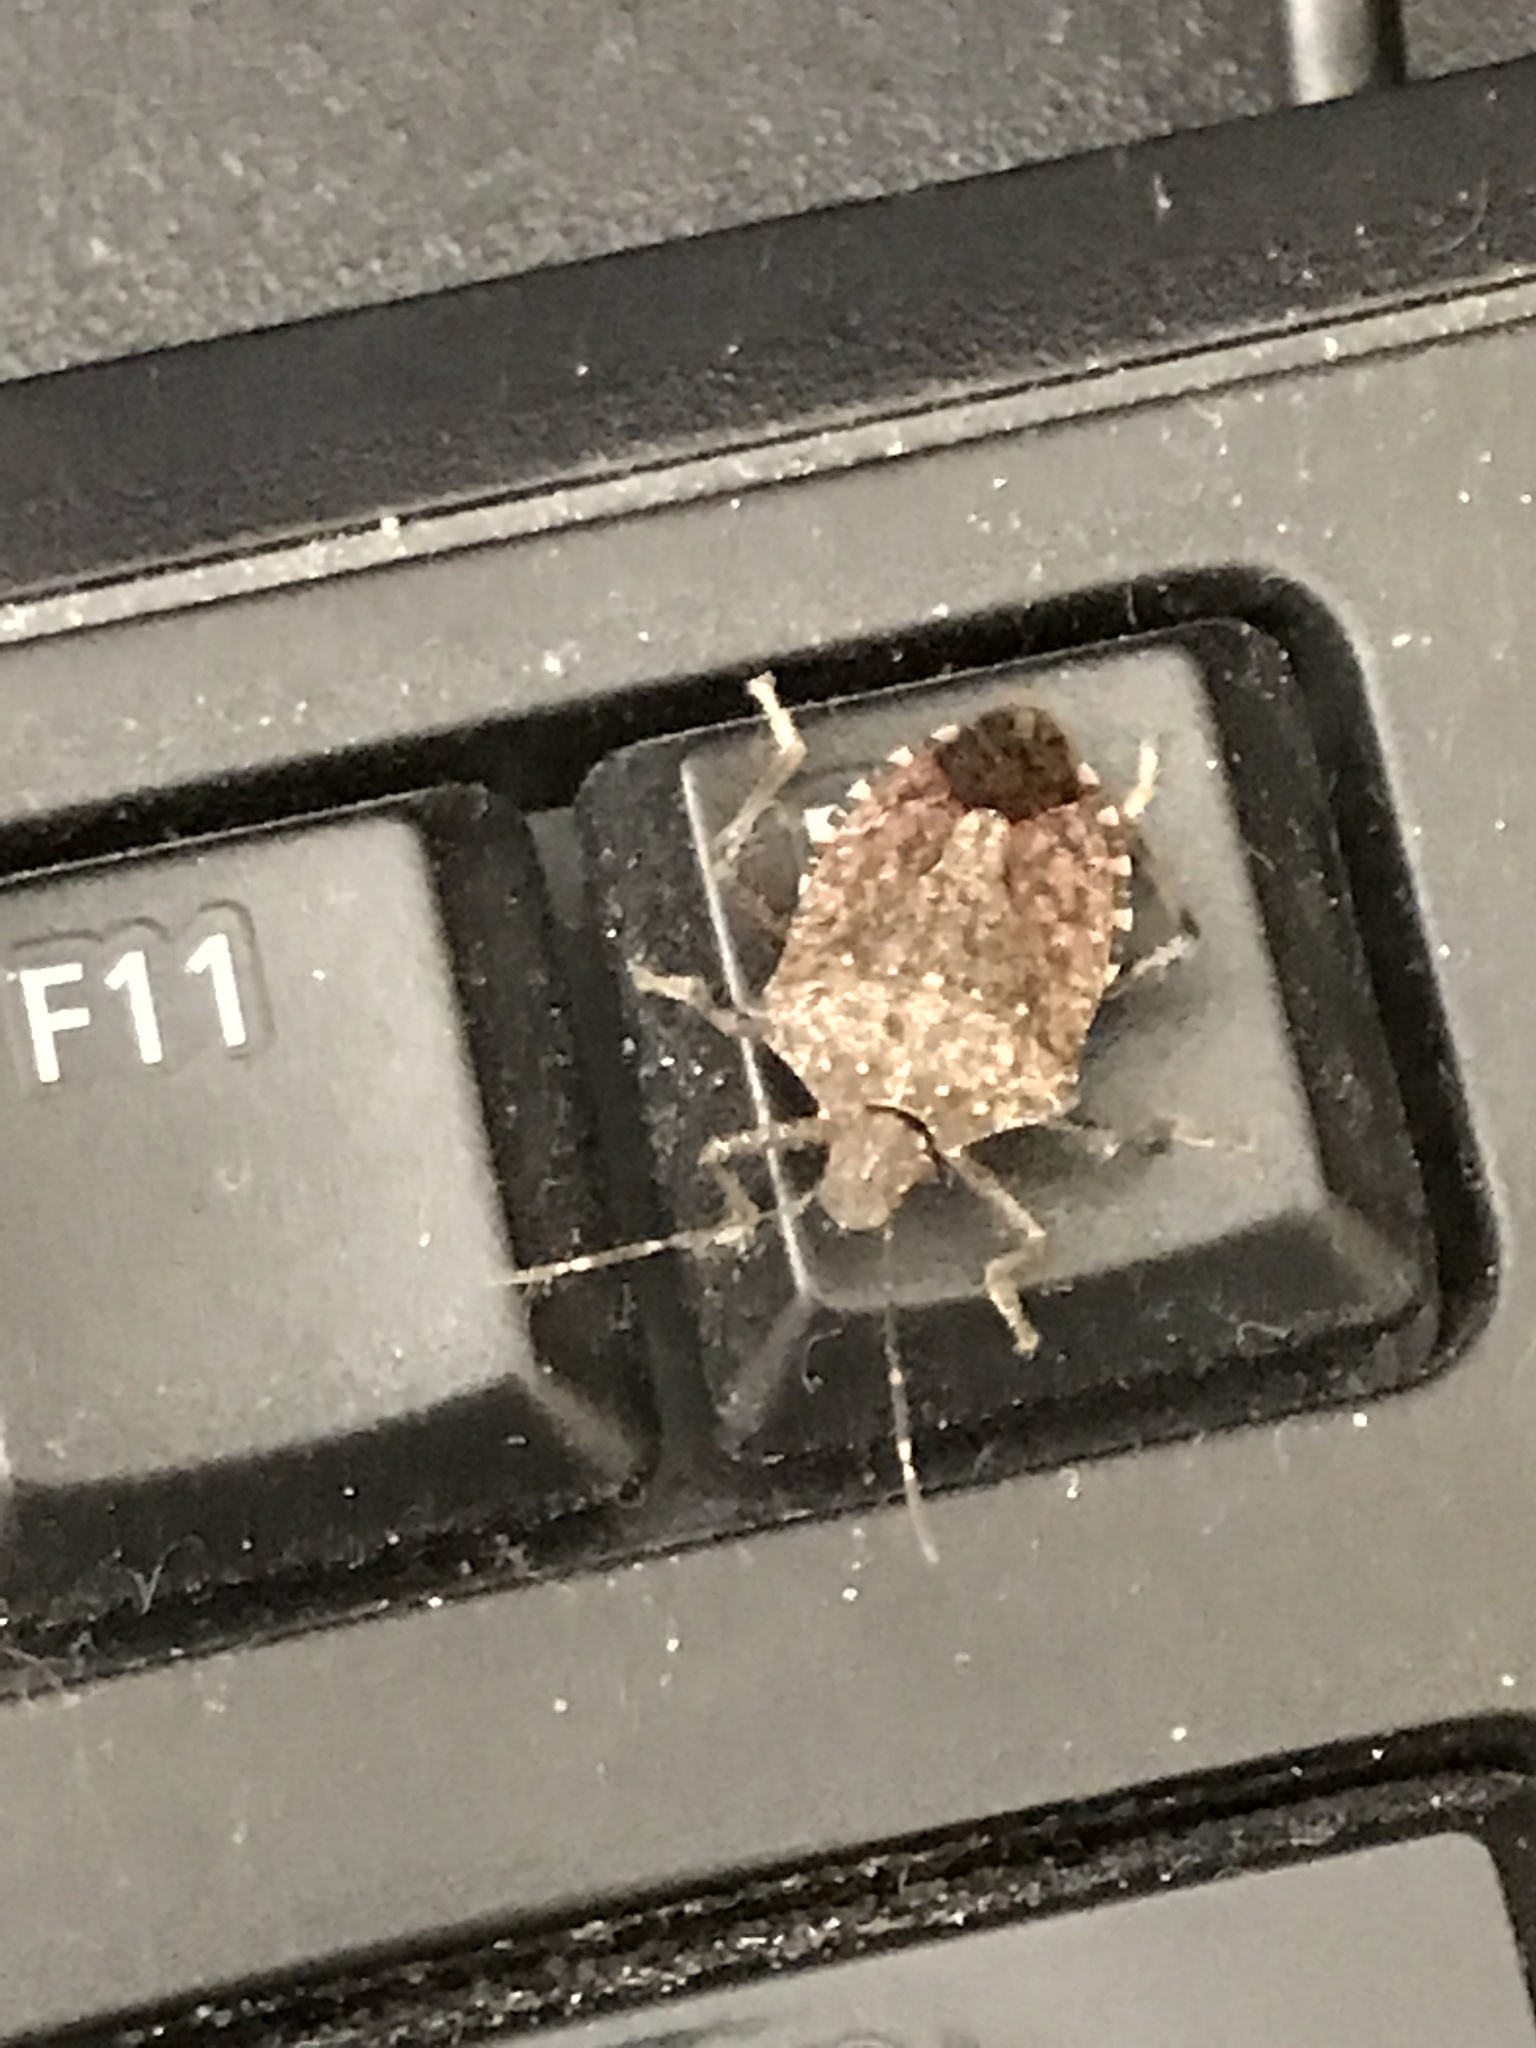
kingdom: Animalia
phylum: Arthropoda
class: Insecta
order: Hemiptera
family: Pentatomidae
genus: Halyomorpha
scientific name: Halyomorpha halys
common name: Brown marmorated stink bug
